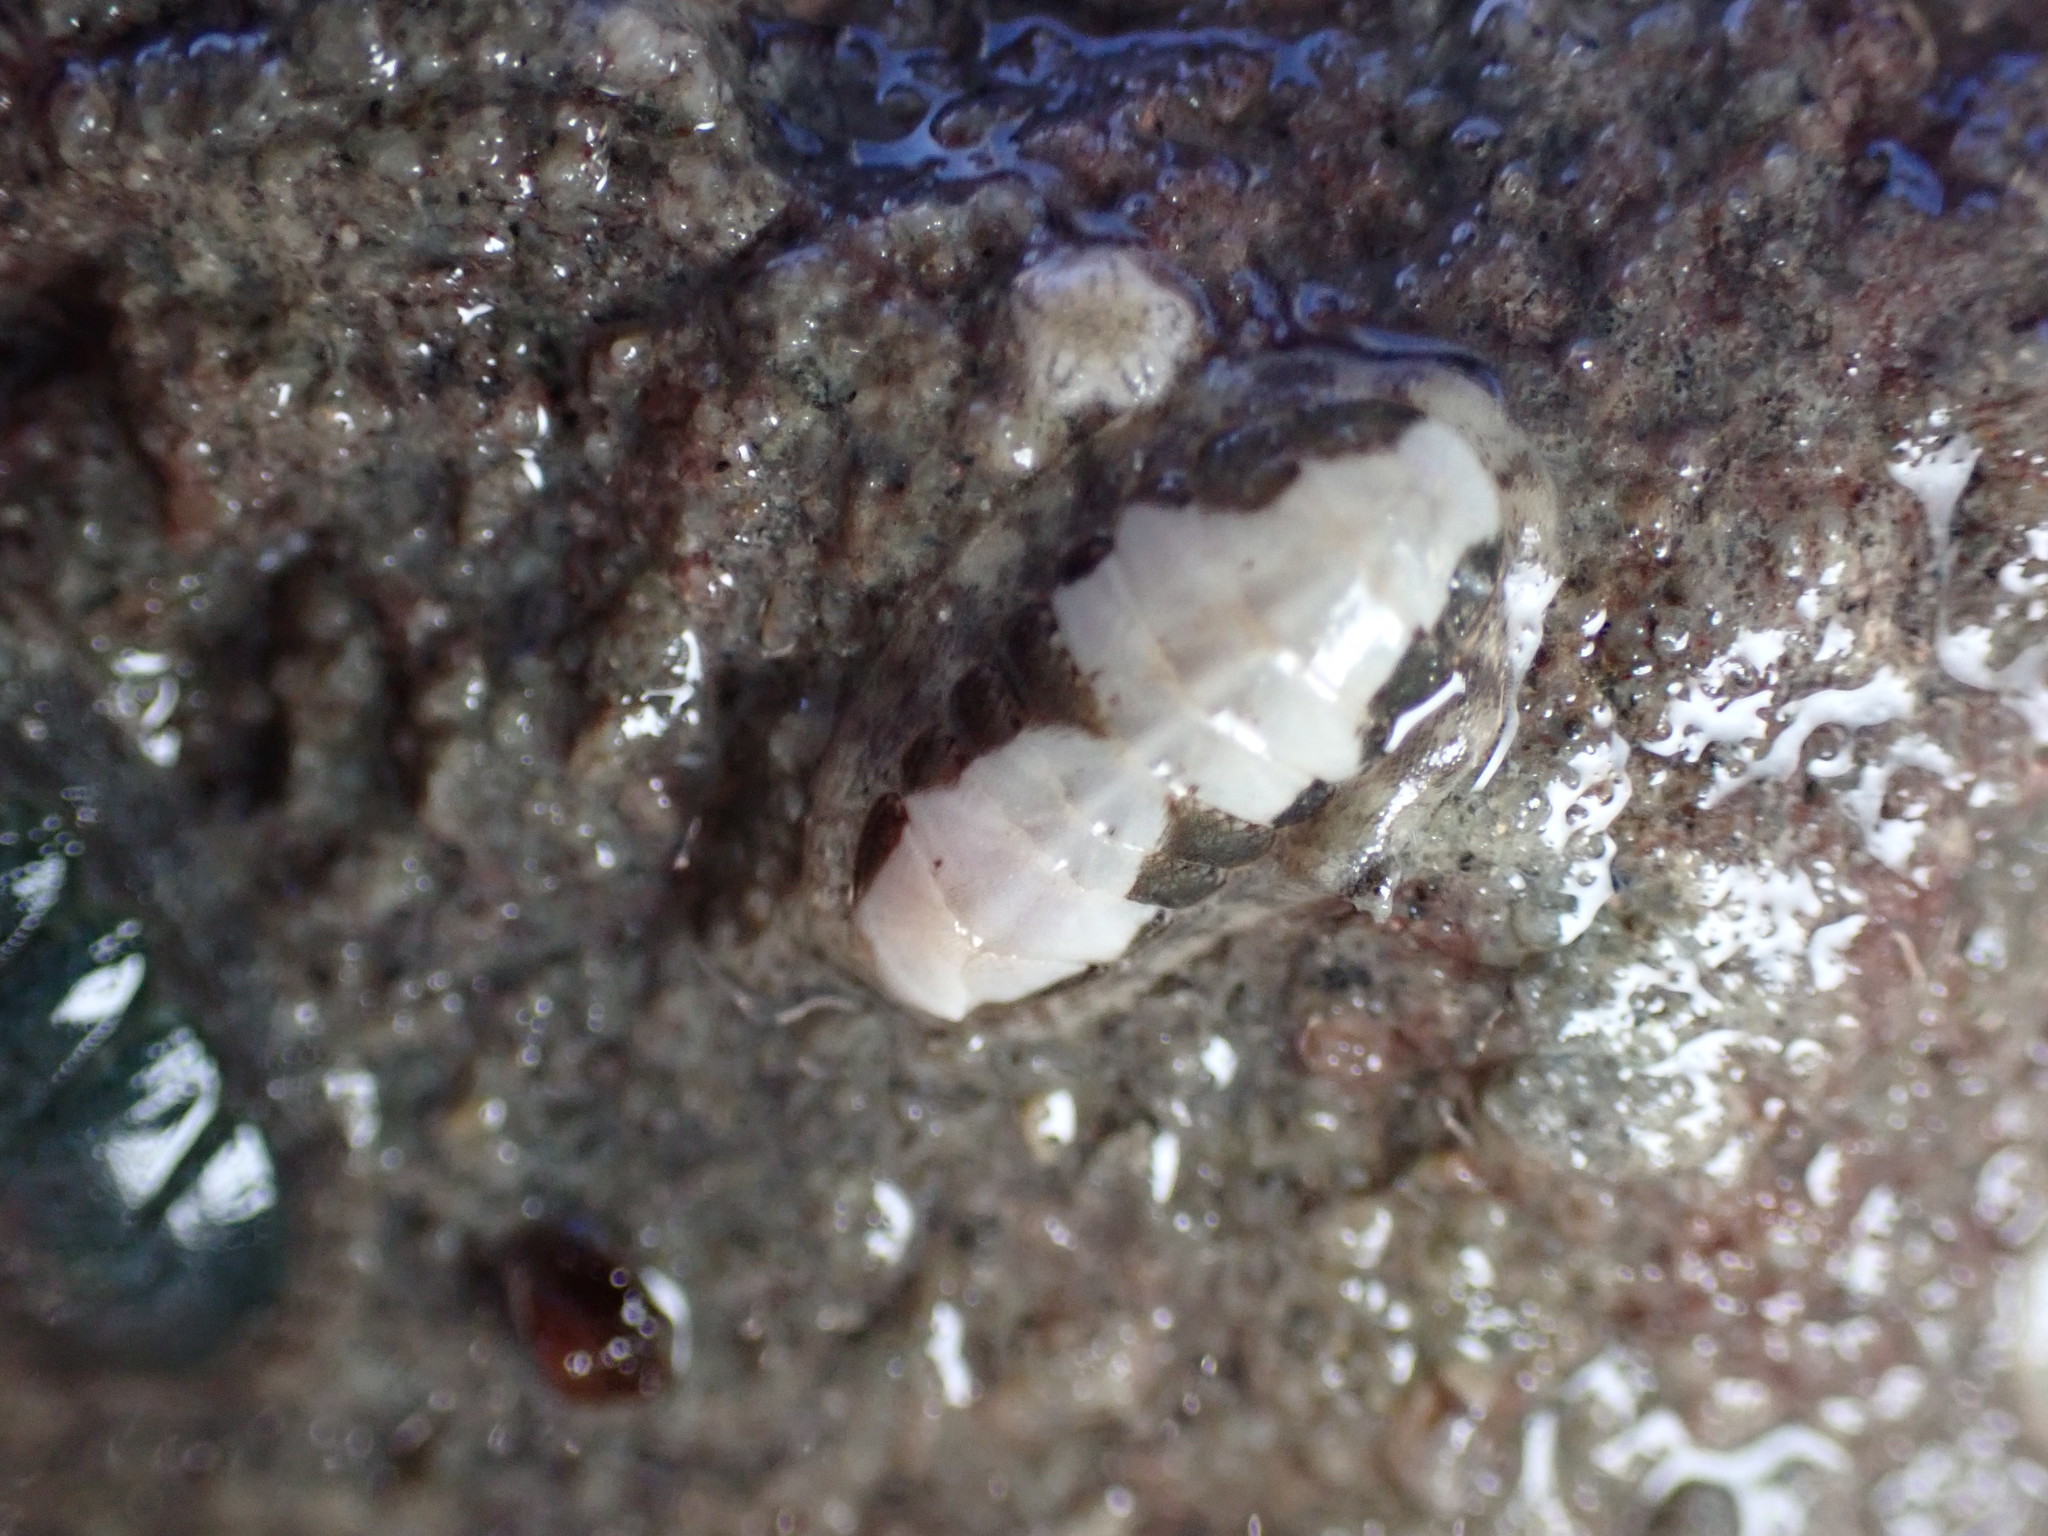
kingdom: Animalia
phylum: Mollusca
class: Polyplacophora
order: Chitonida
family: Ischnochitonidae
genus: Ischnochiton
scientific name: Ischnochiton maorianus
